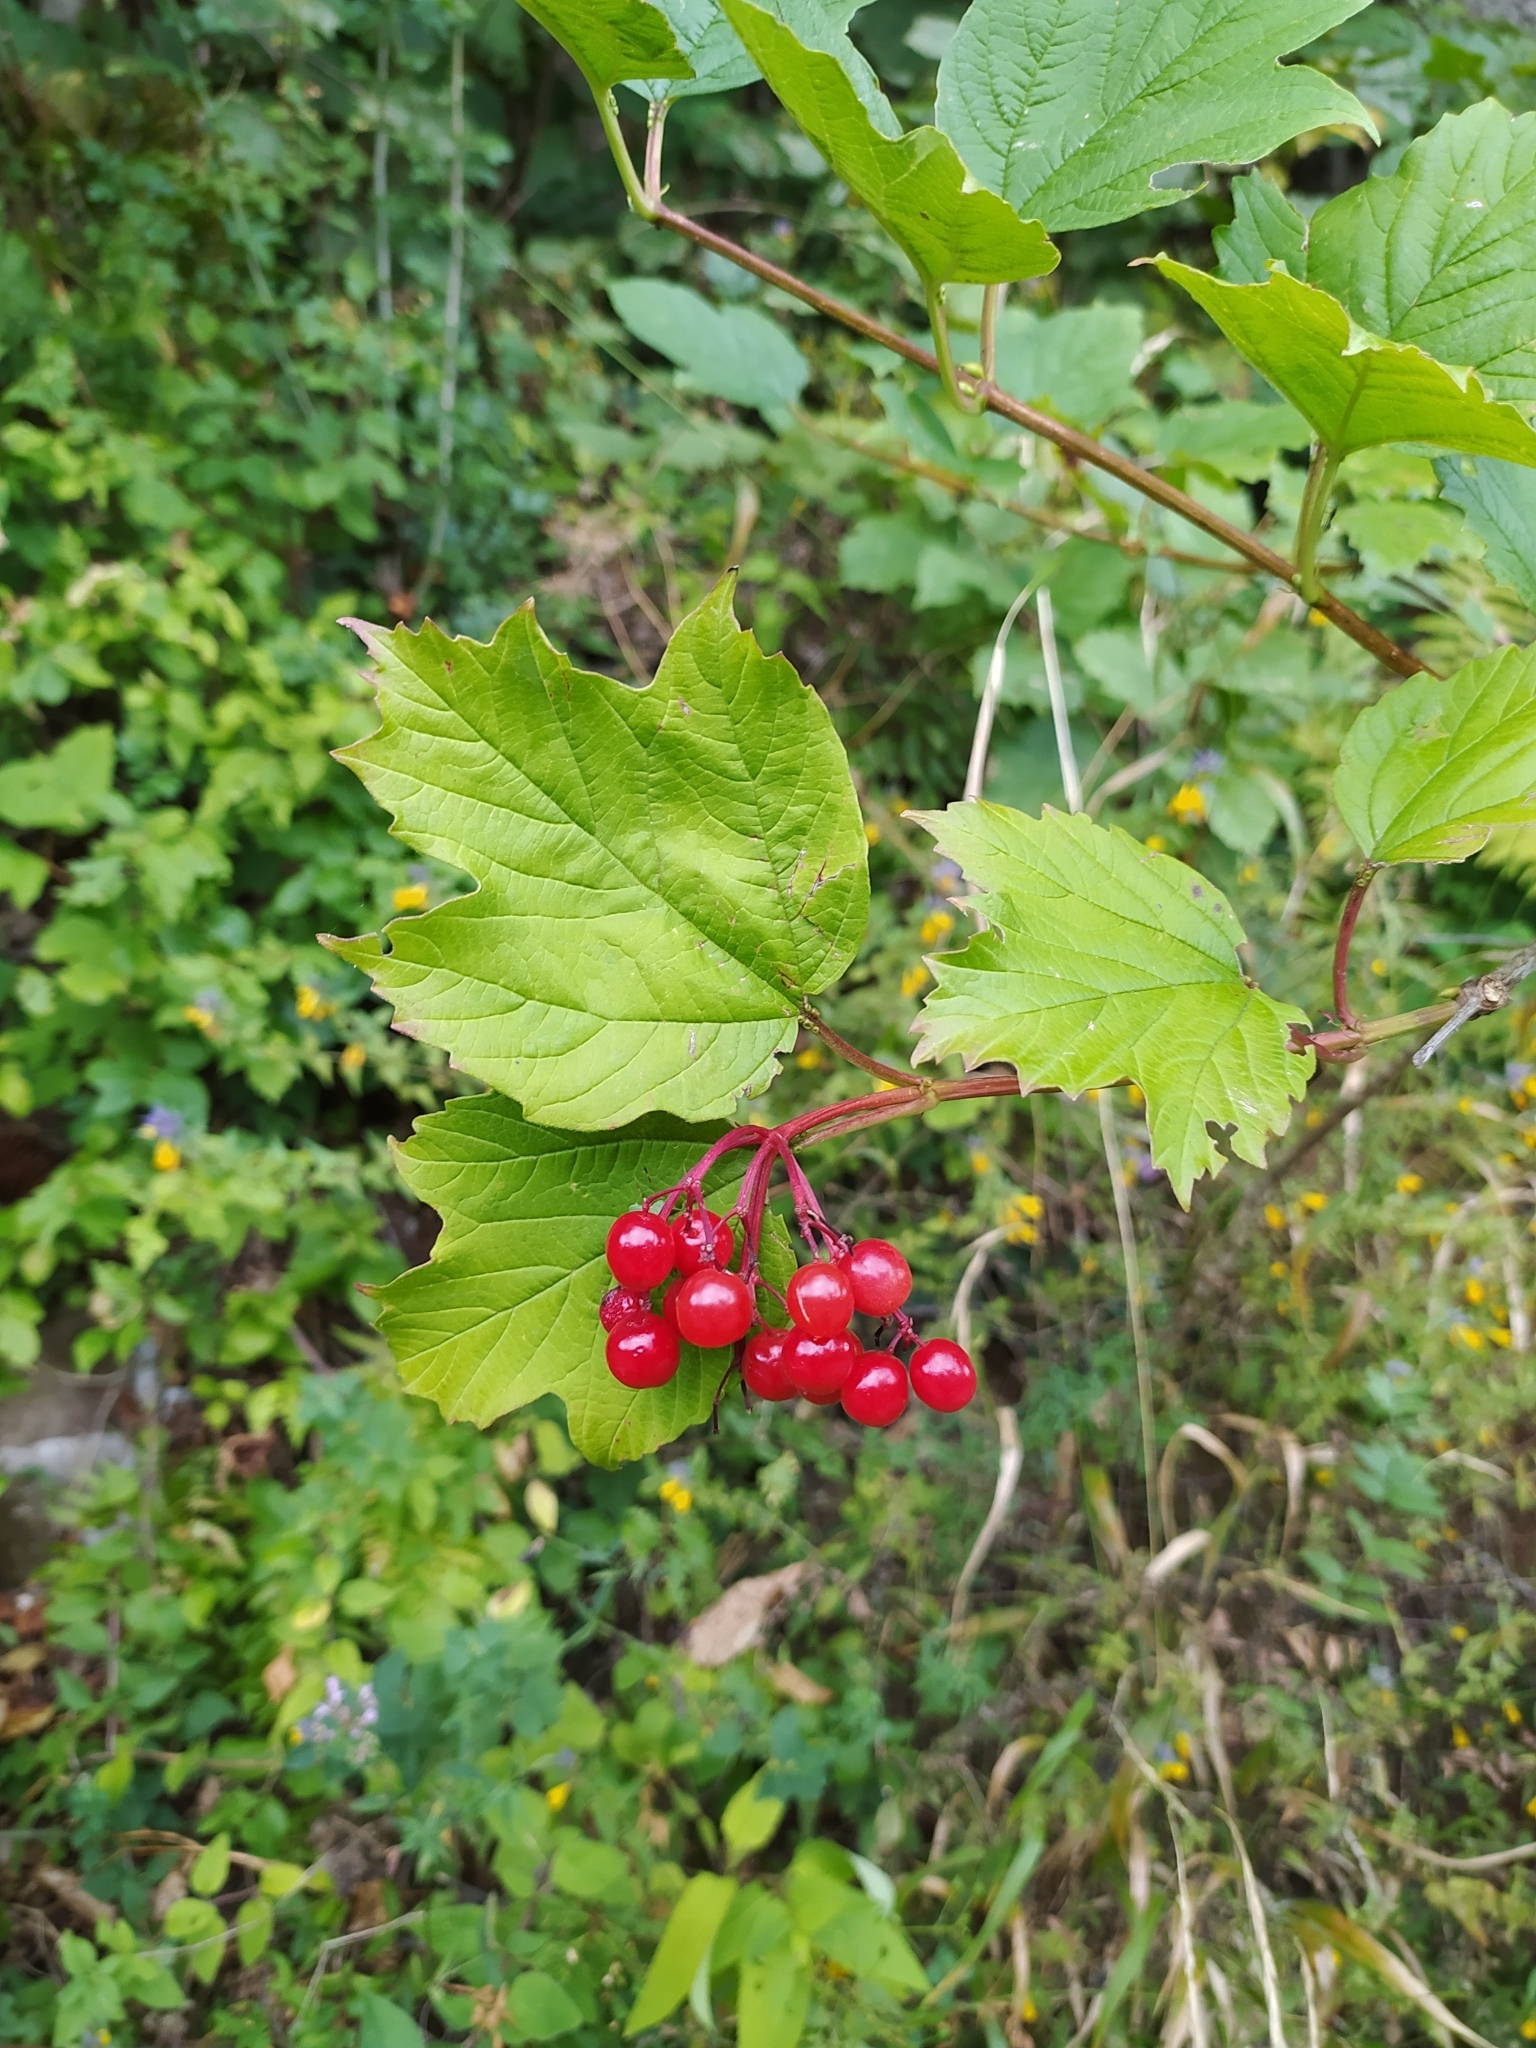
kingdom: Plantae
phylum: Tracheophyta
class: Magnoliopsida
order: Dipsacales
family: Viburnaceae
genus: Viburnum
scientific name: Viburnum opulus
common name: Guelder-rose
